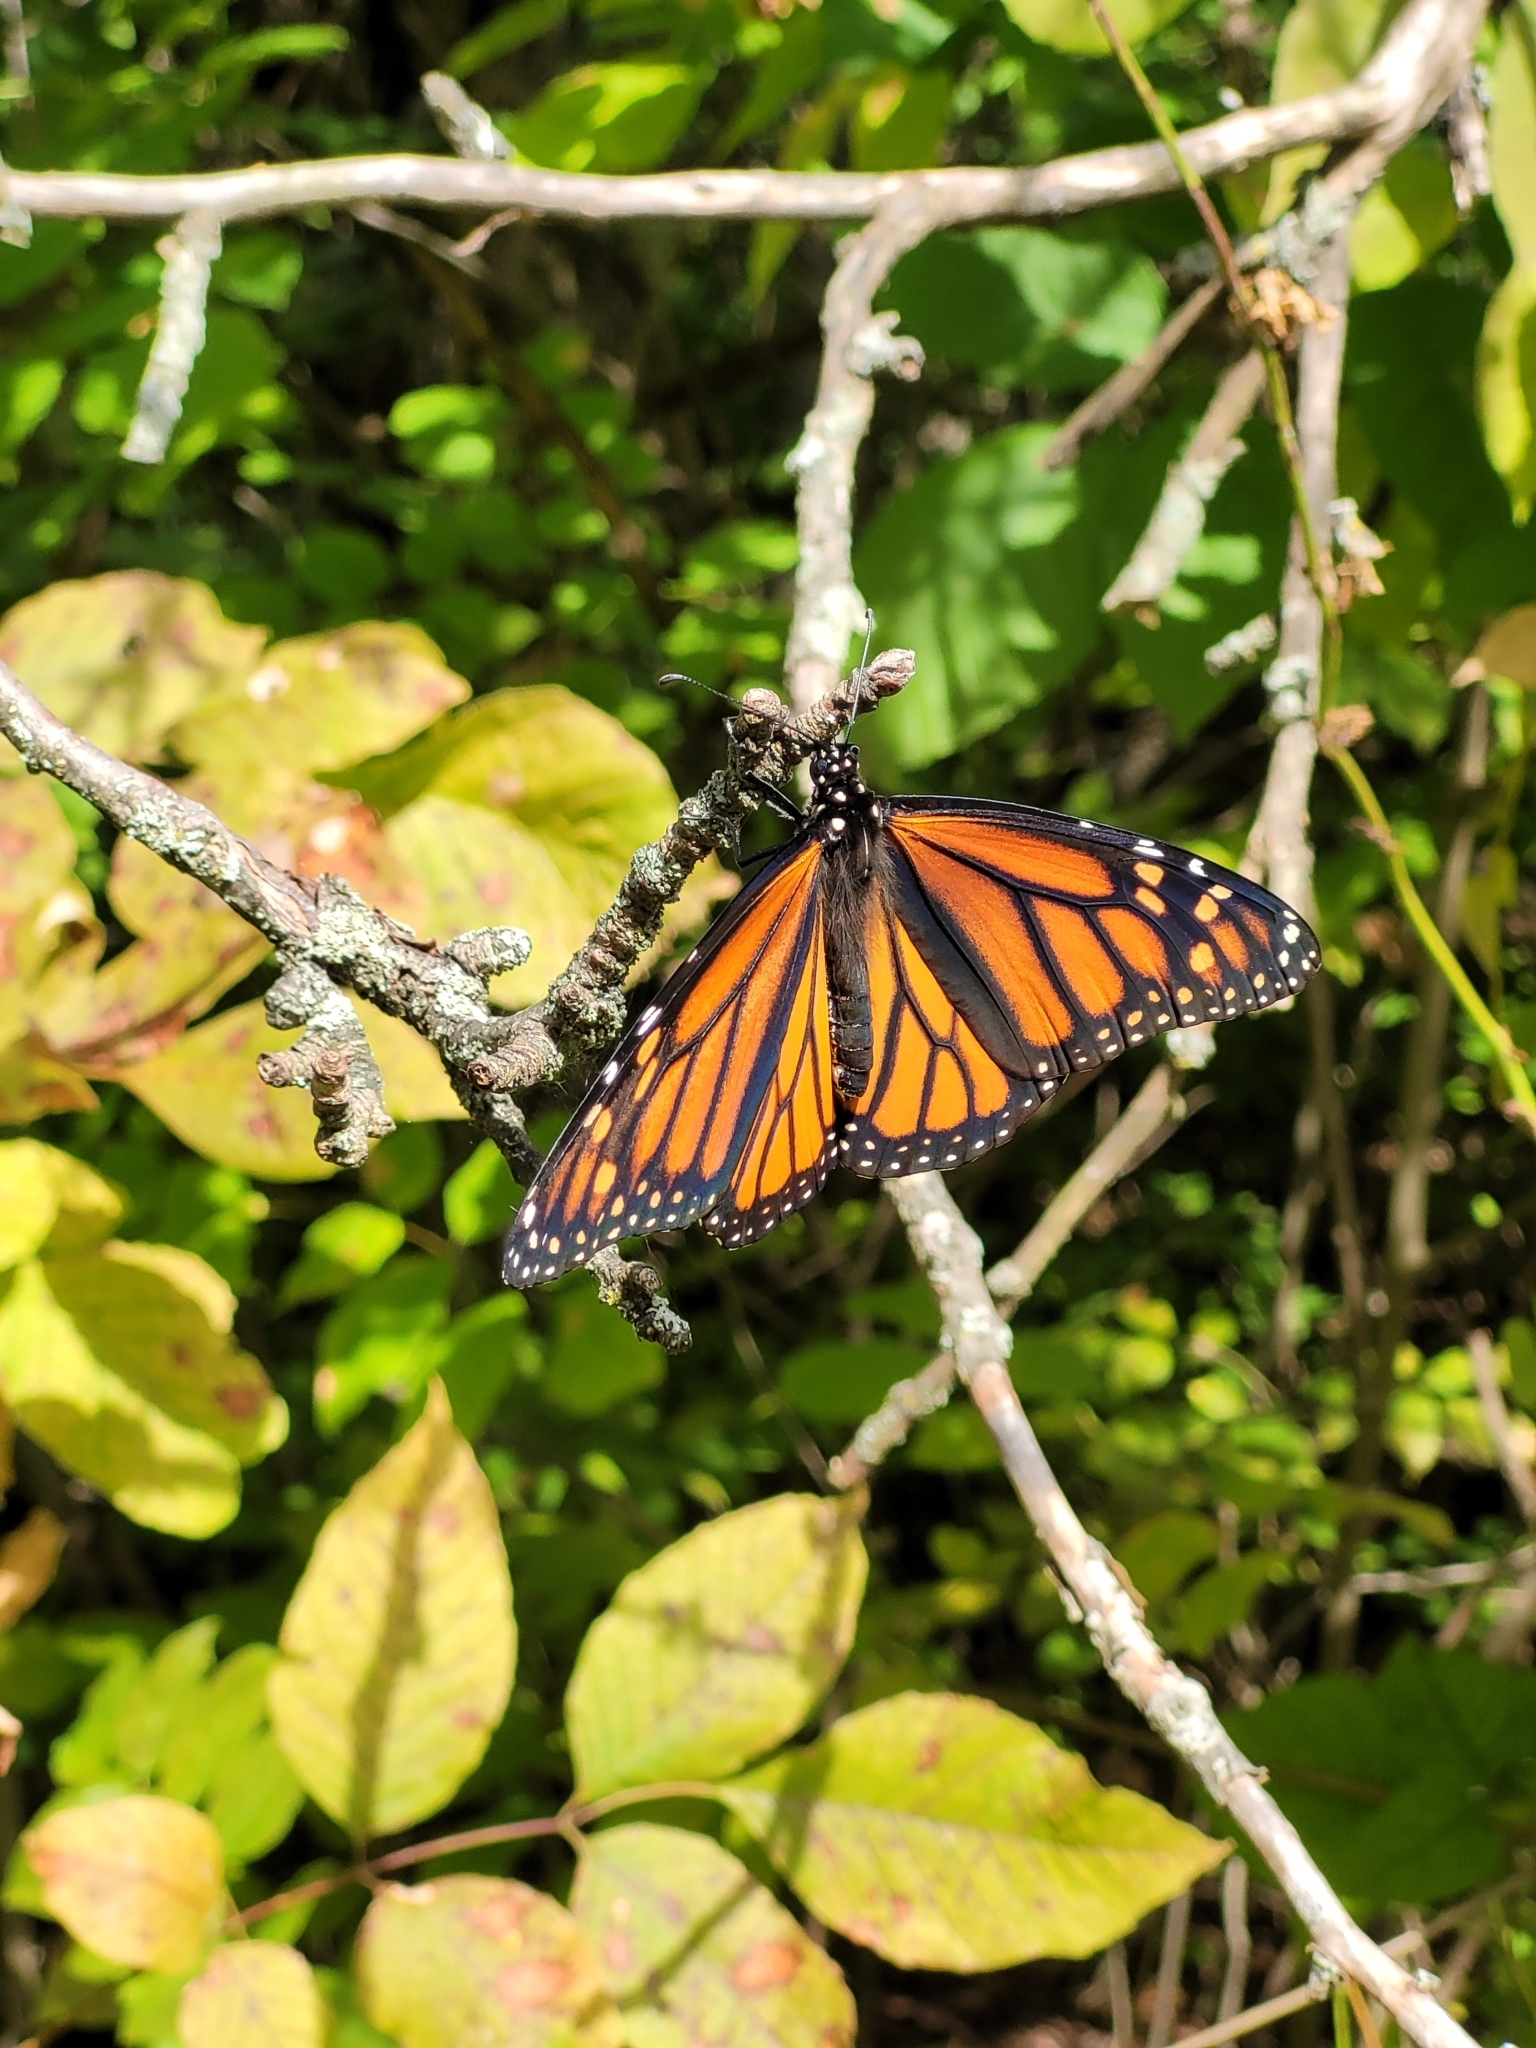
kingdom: Animalia
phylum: Arthropoda
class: Insecta
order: Lepidoptera
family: Nymphalidae
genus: Danaus
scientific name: Danaus plexippus
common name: Monarch
